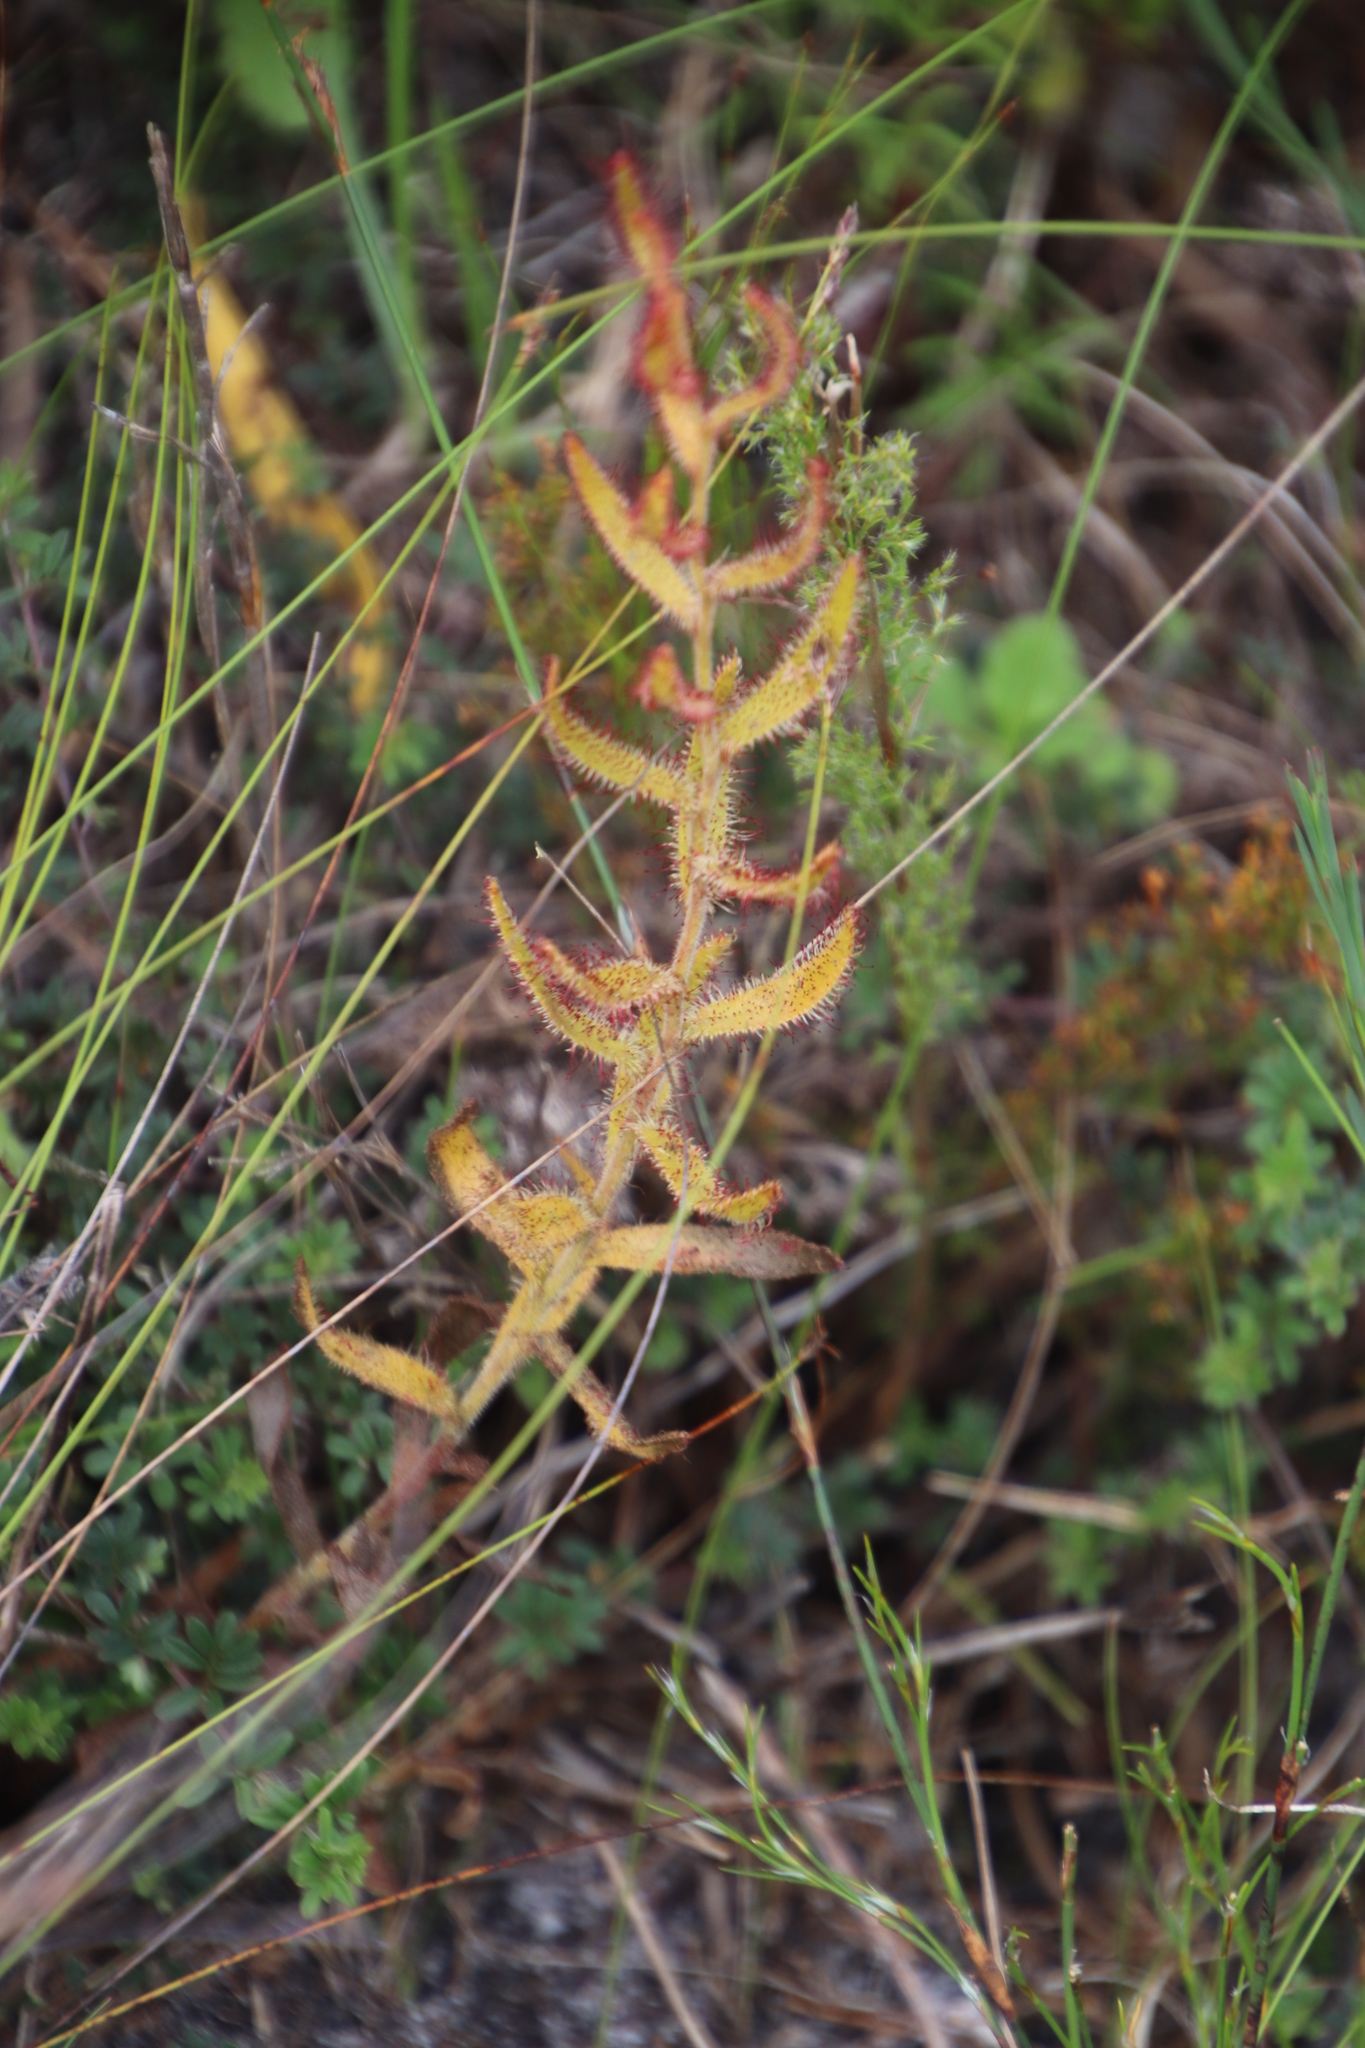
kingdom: Plantae
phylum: Tracheophyta
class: Magnoliopsida
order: Caryophyllales
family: Droseraceae
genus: Drosera
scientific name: Drosera cistiflora
